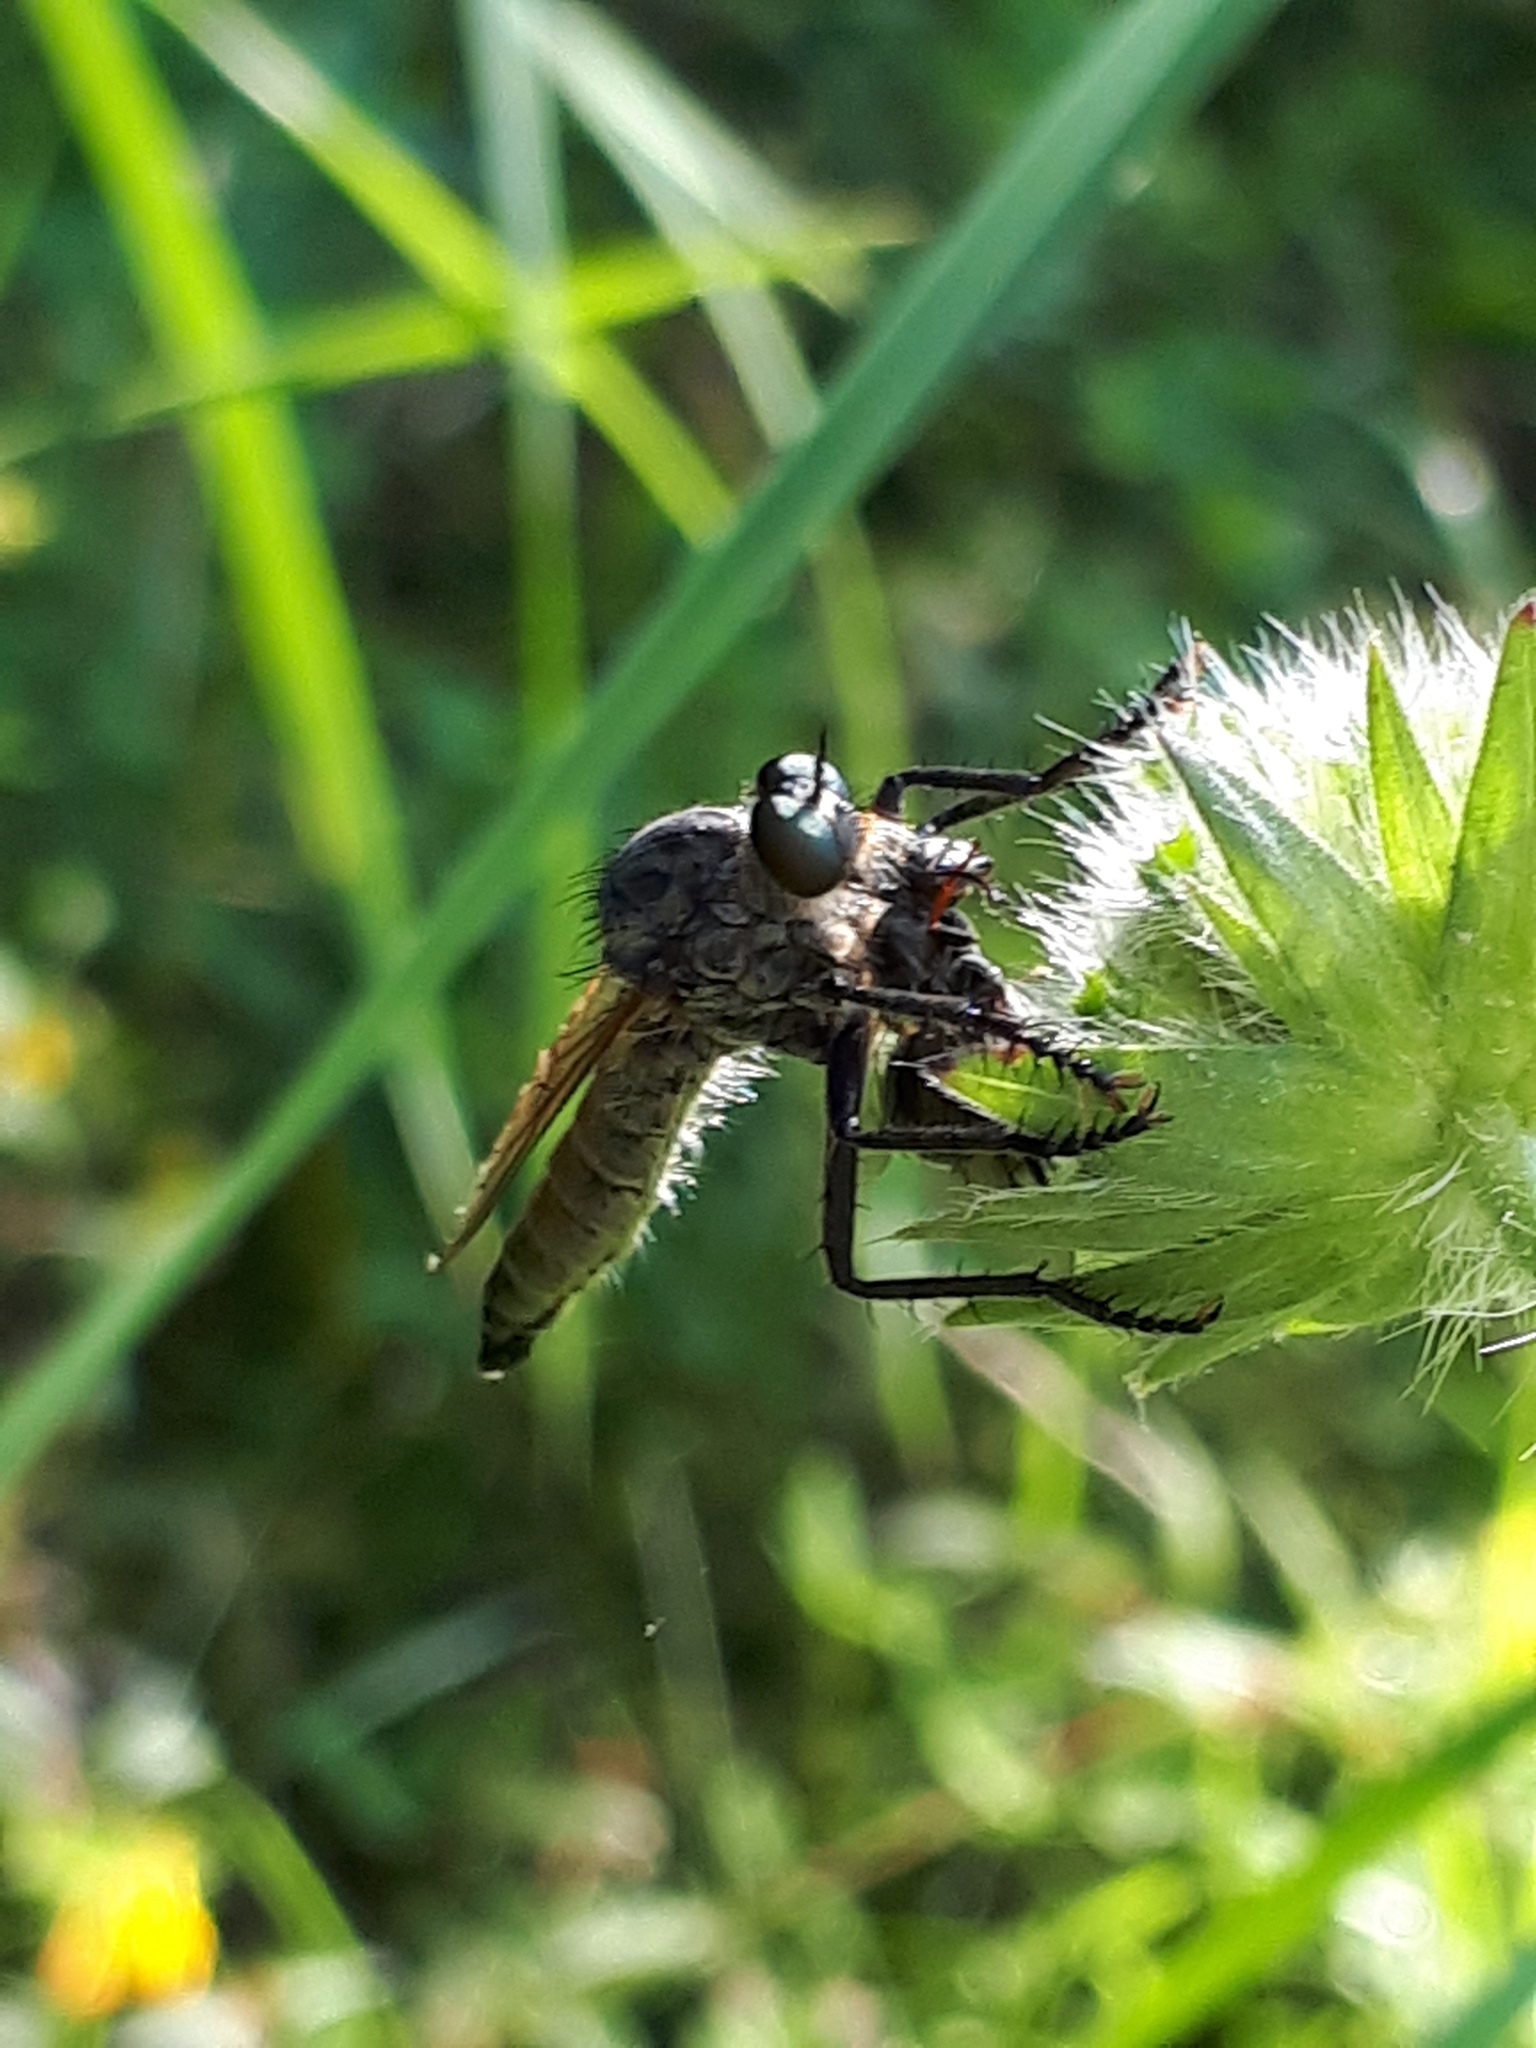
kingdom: Animalia
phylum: Arthropoda
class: Insecta
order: Diptera
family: Asilidae
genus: Eutolmus
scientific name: Eutolmus rufibarbis
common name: Golden-tabbed robberfly
